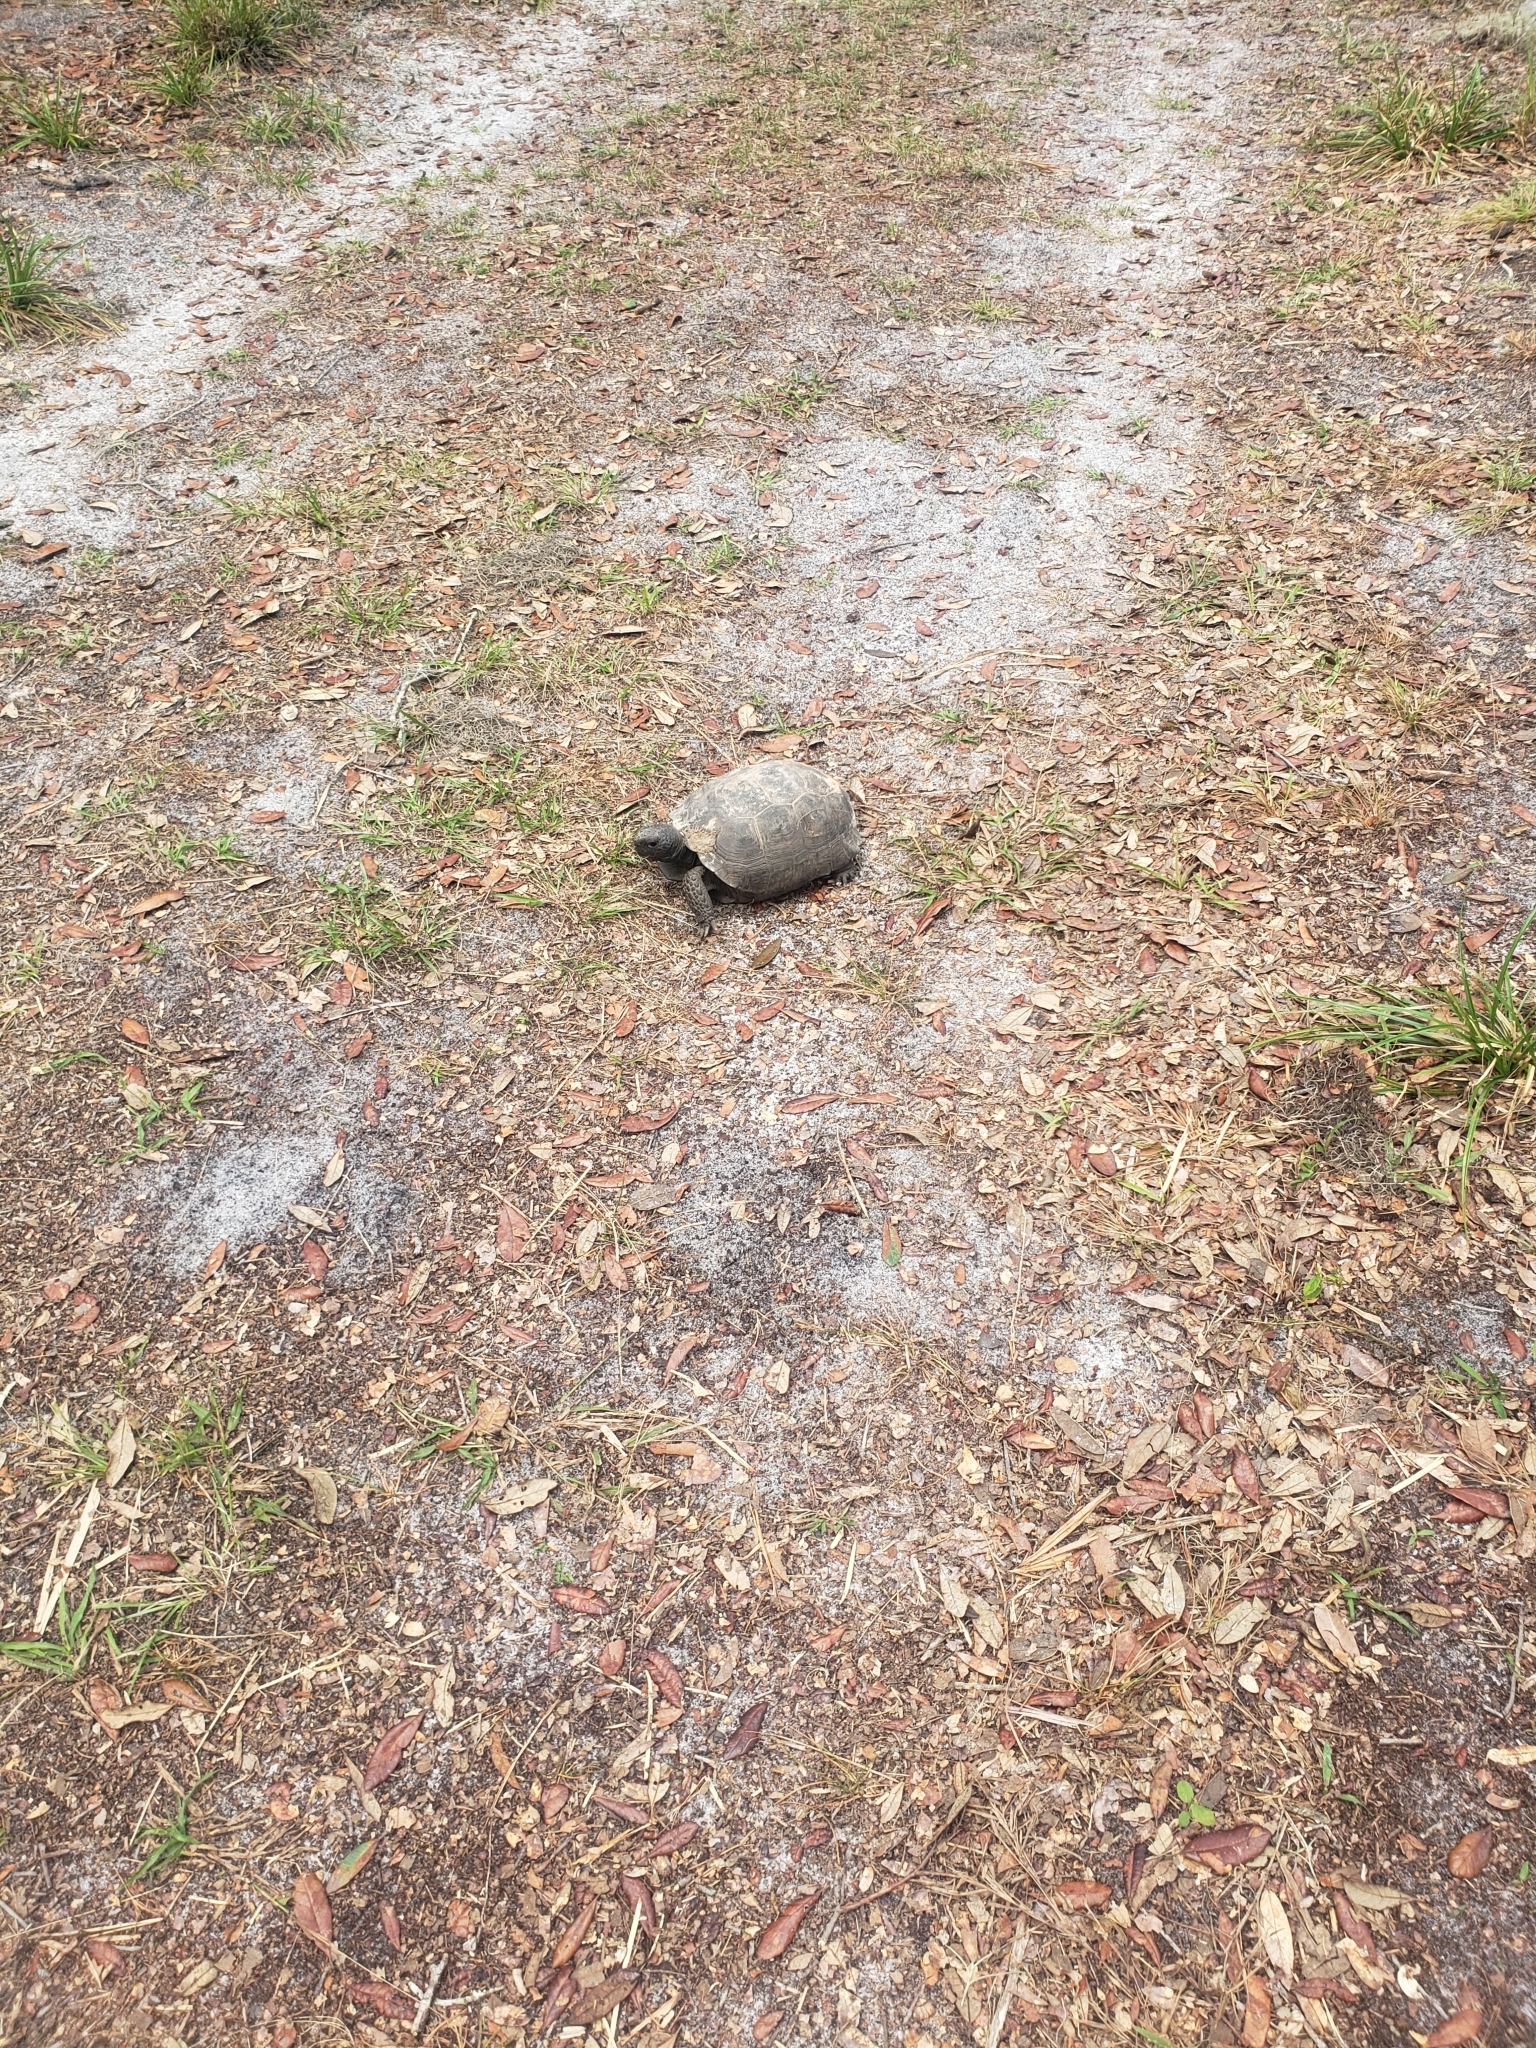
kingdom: Animalia
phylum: Chordata
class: Testudines
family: Testudinidae
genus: Gopherus
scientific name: Gopherus polyphemus
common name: Florida gopher tortoise
